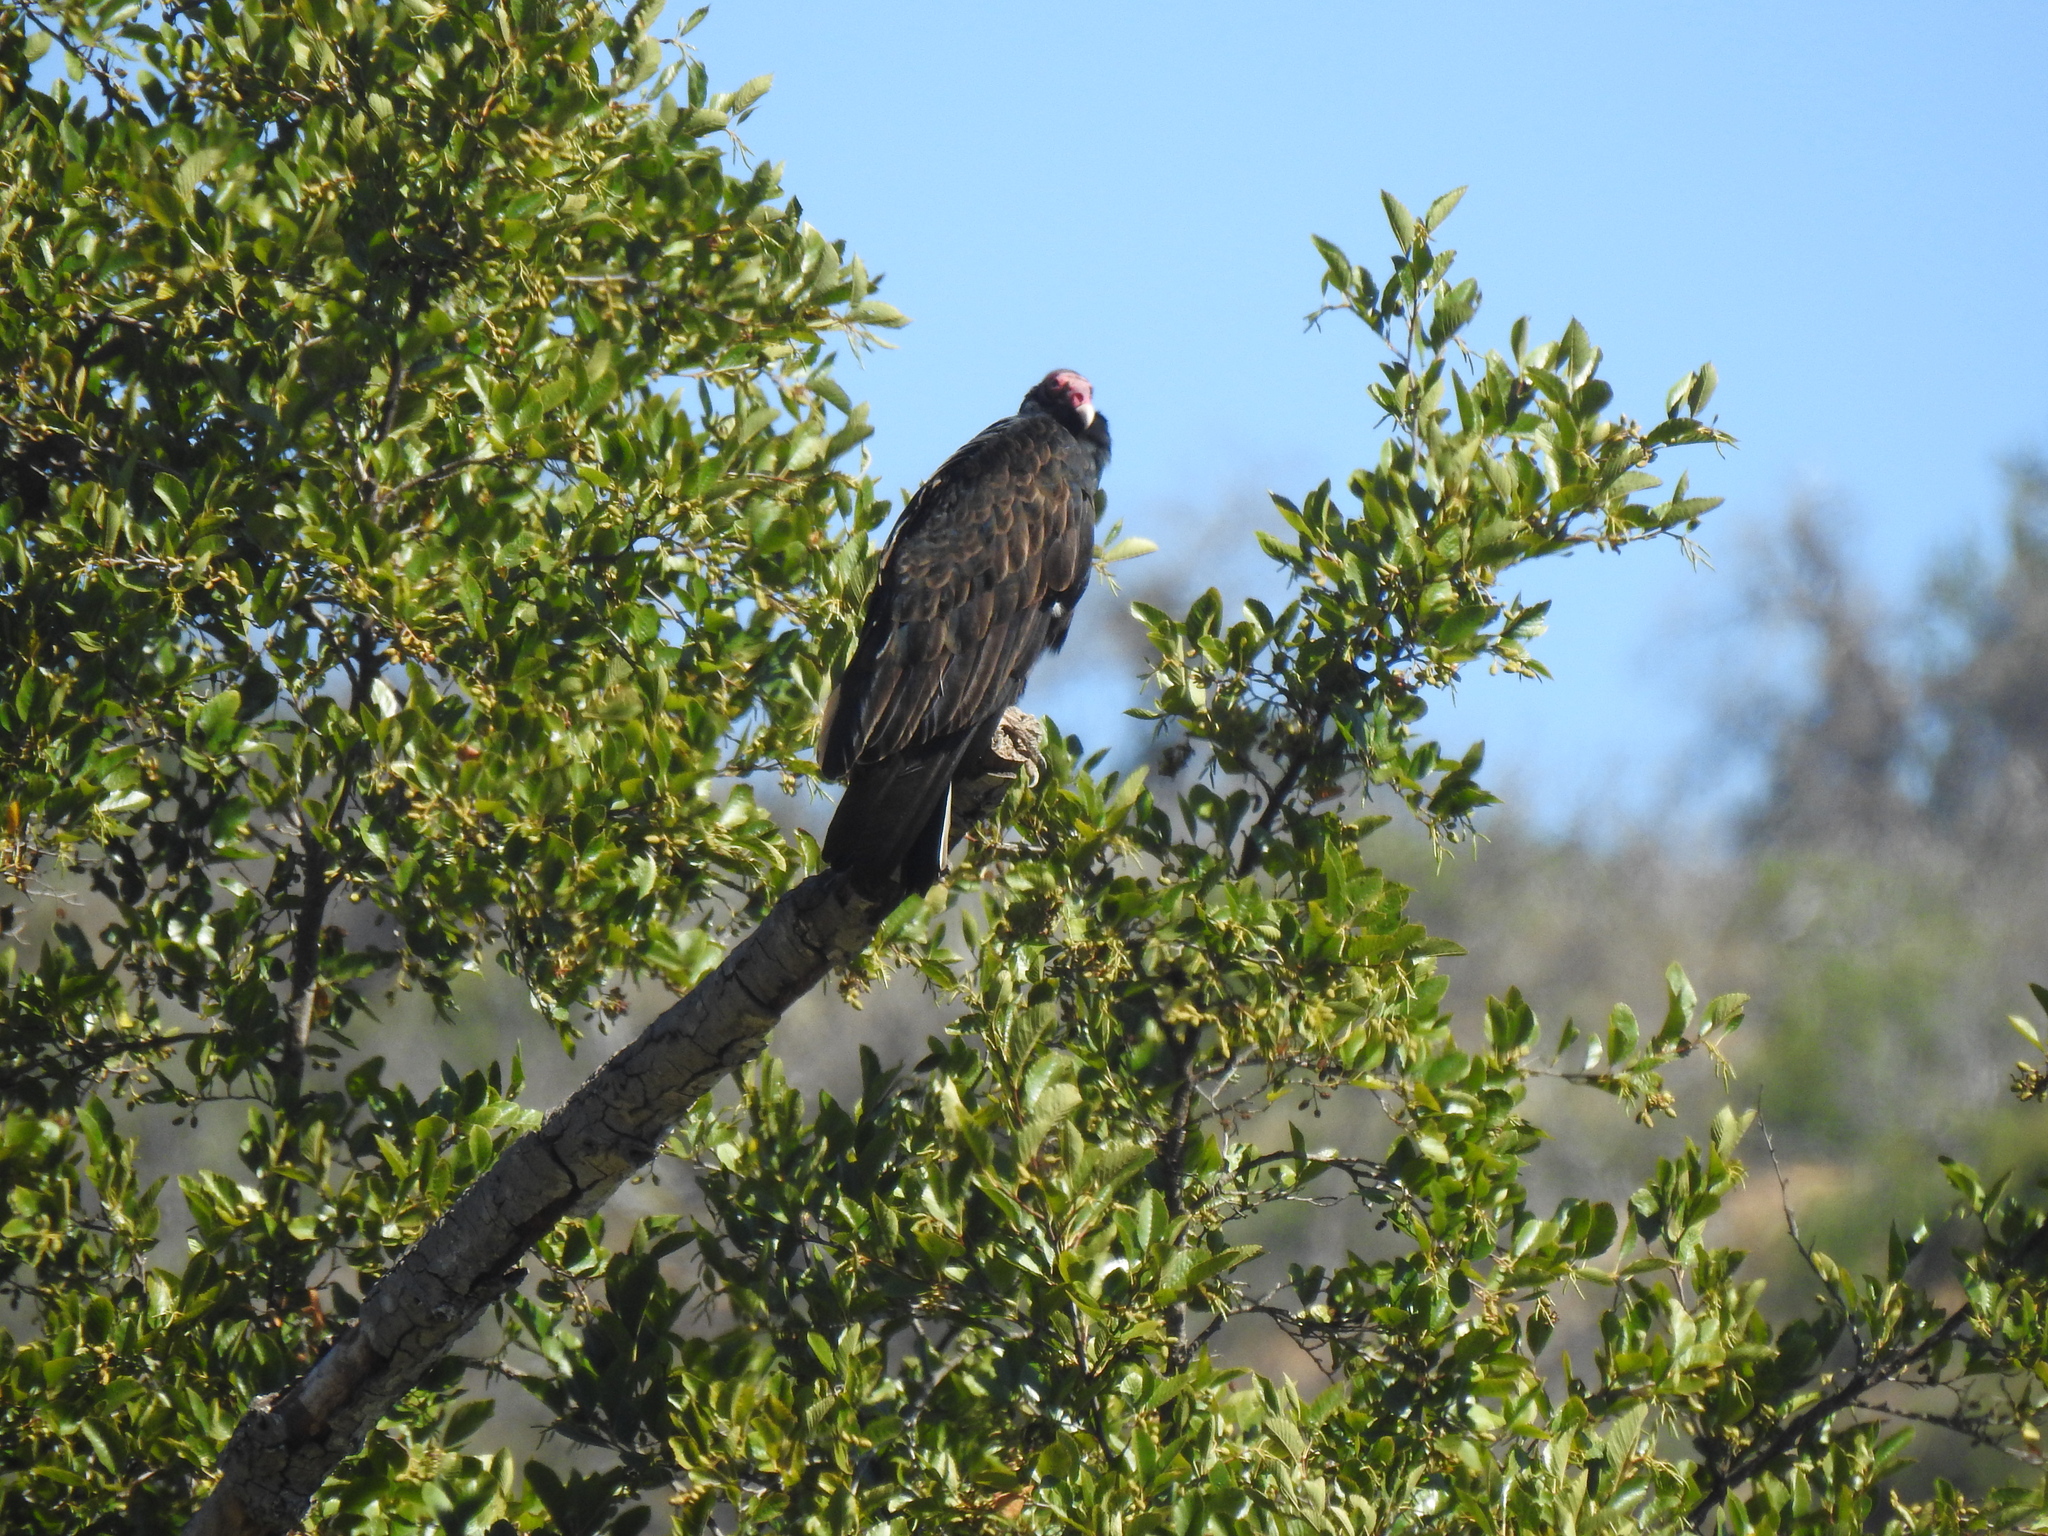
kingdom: Animalia
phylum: Chordata
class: Aves
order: Accipitriformes
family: Cathartidae
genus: Cathartes
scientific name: Cathartes aura
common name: Turkey vulture
